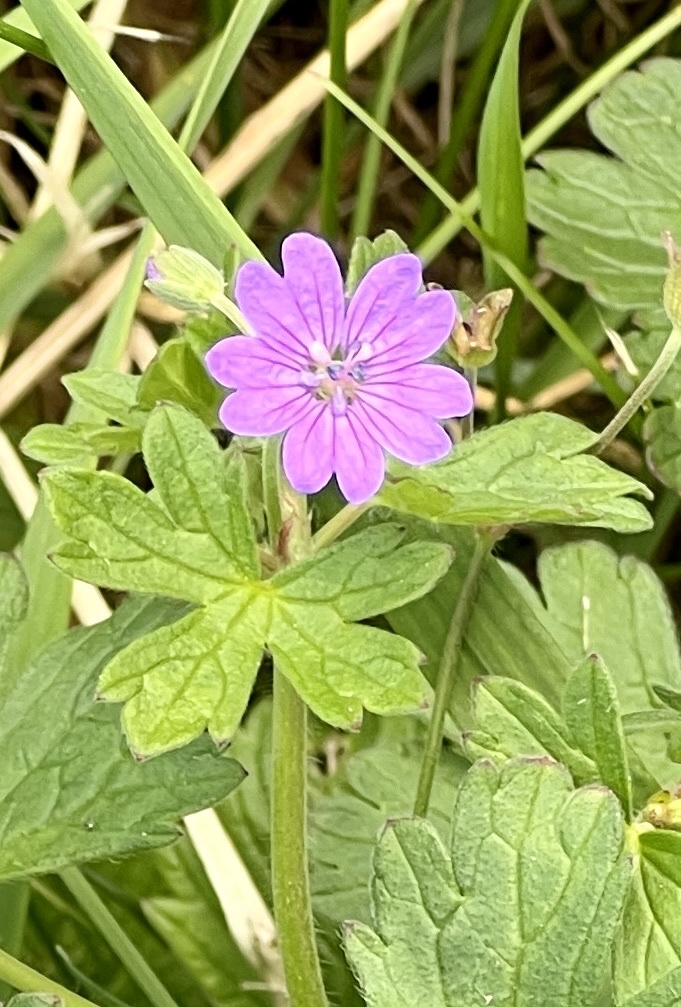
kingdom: Plantae
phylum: Tracheophyta
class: Magnoliopsida
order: Geraniales
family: Geraniaceae
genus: Geranium
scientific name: Geranium pyrenaicum
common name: Hedgerow crane's-bill
